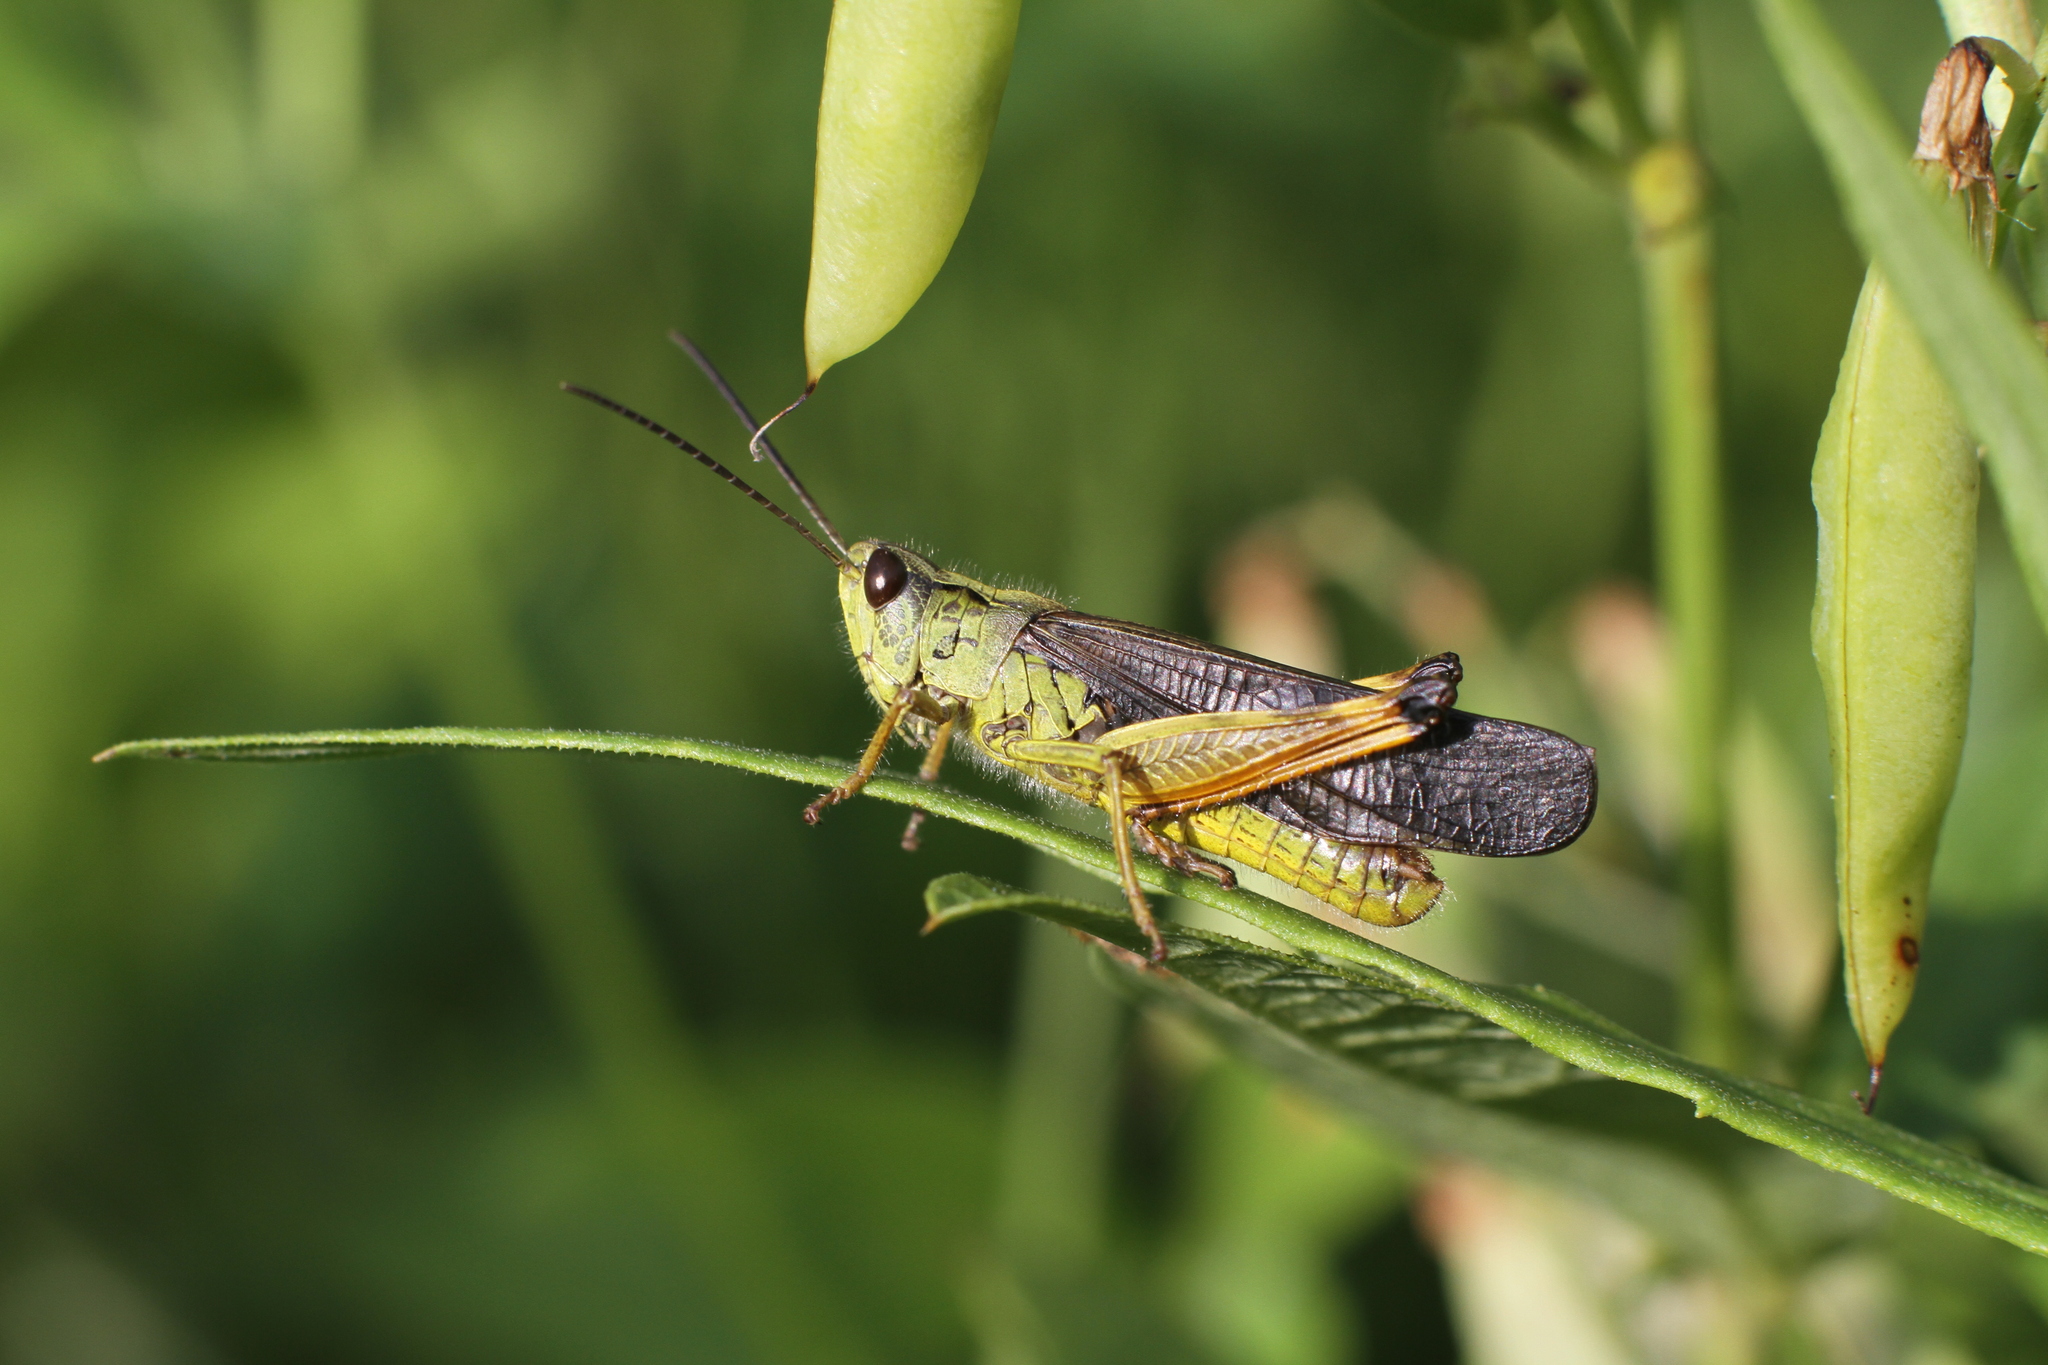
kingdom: Animalia
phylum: Arthropoda
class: Insecta
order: Orthoptera
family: Acrididae
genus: Megaulacobothrus
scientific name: Megaulacobothrus aethalinus
